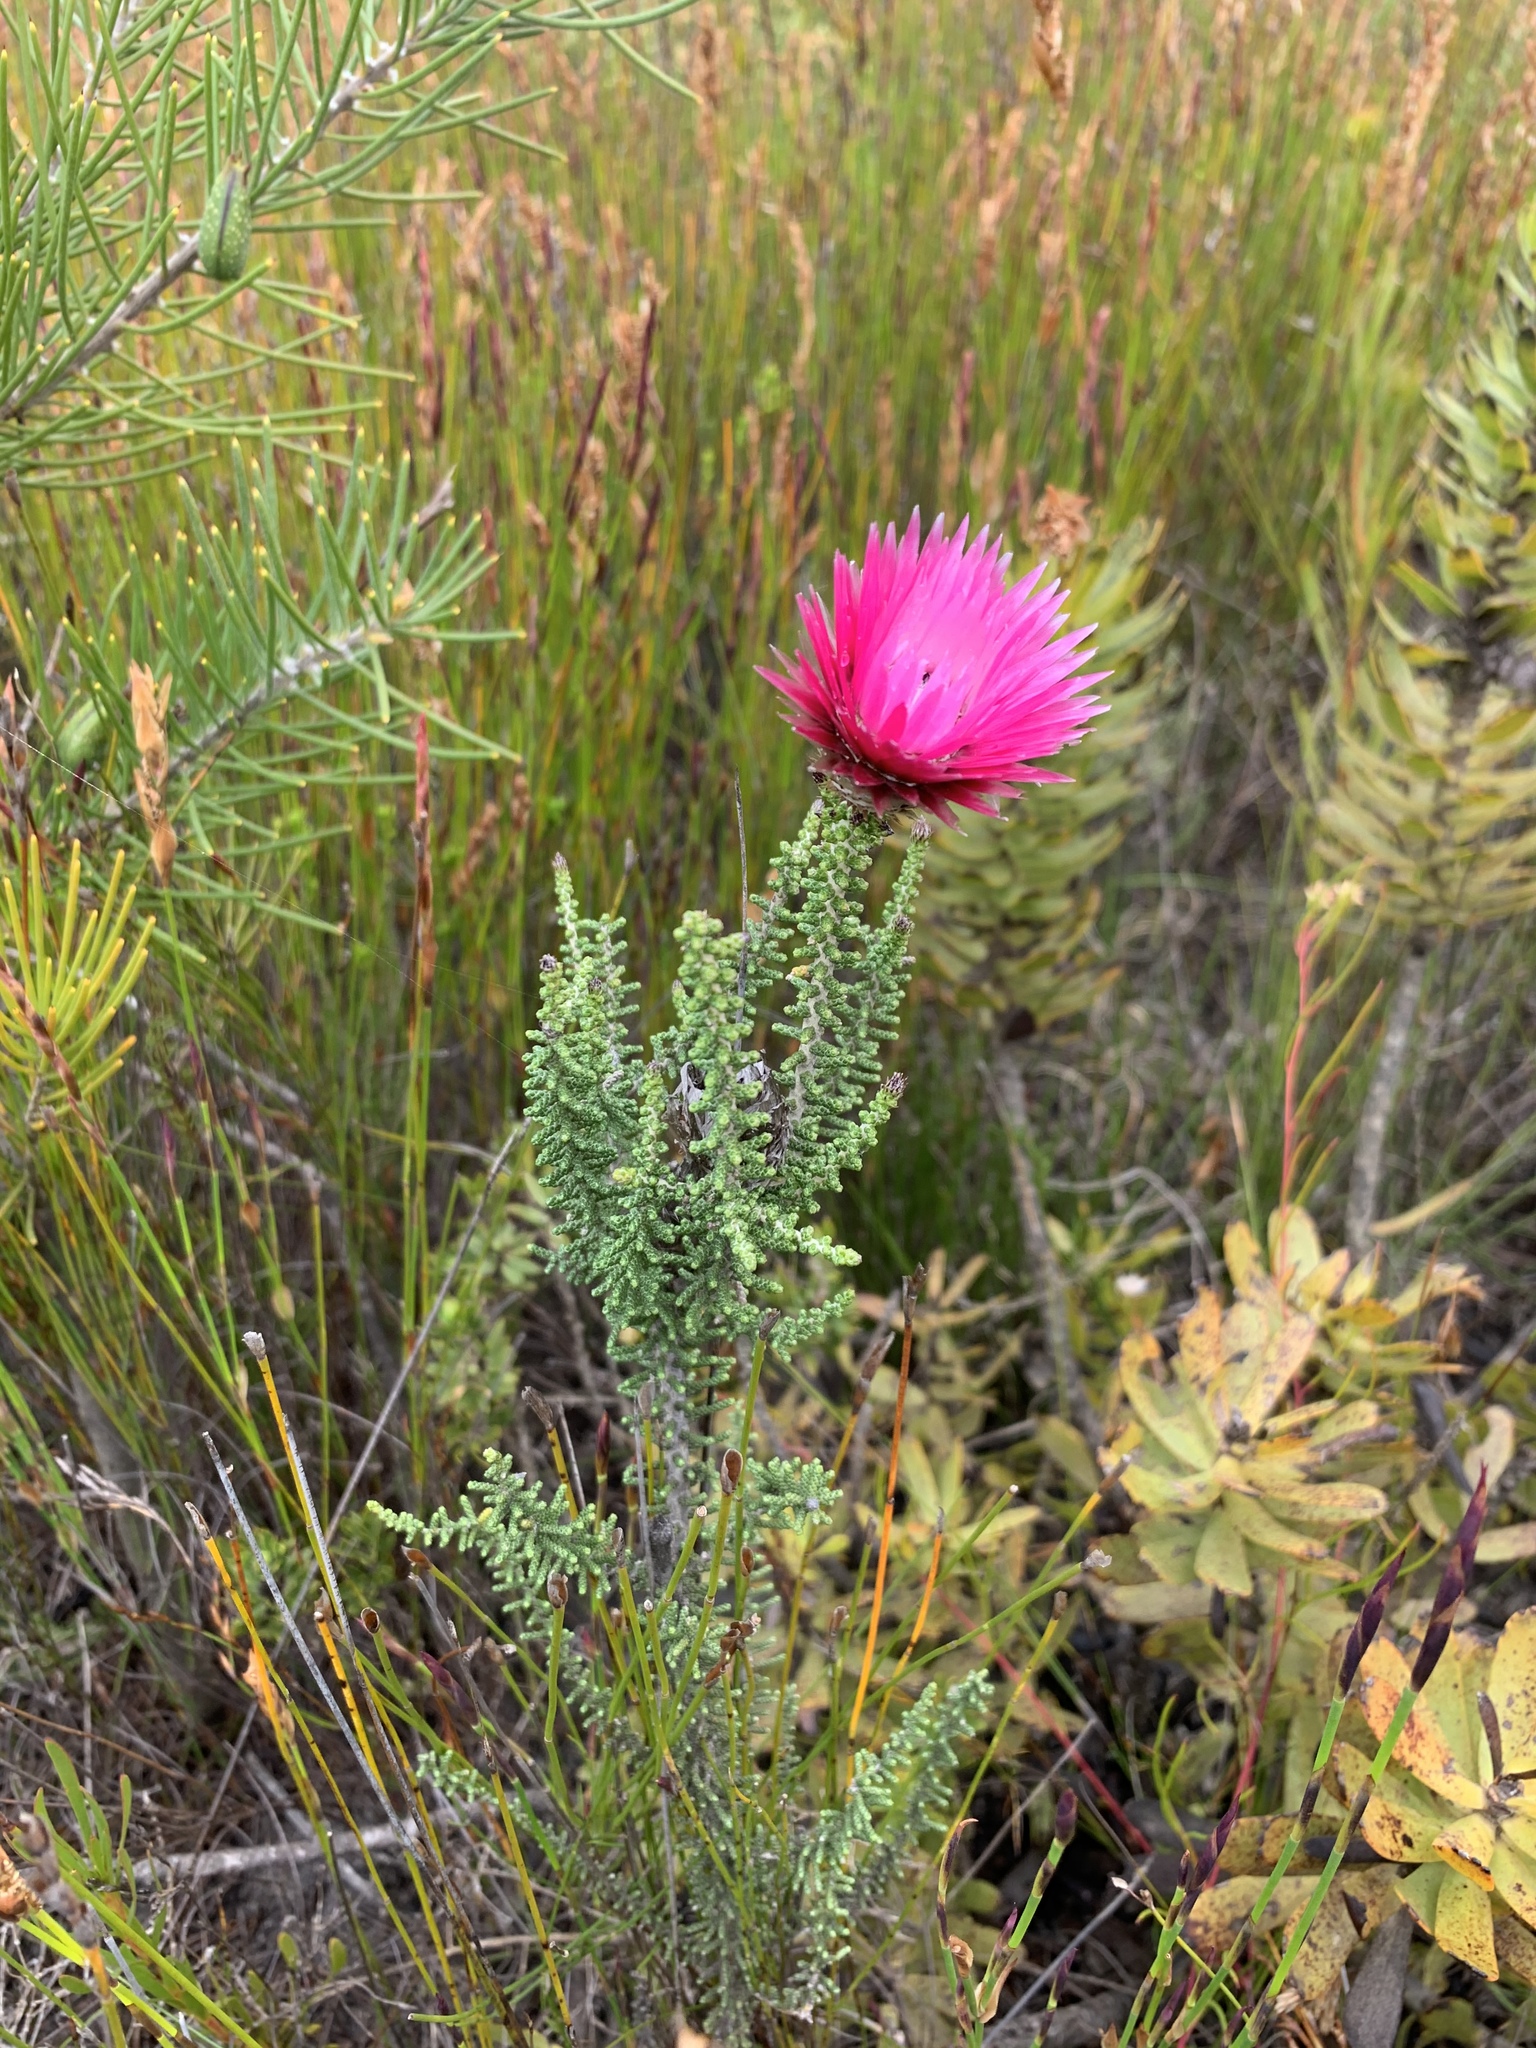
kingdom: Plantae
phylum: Tracheophyta
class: Magnoliopsida
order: Asterales
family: Asteraceae
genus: Phaenocoma
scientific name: Phaenocoma prolifera
